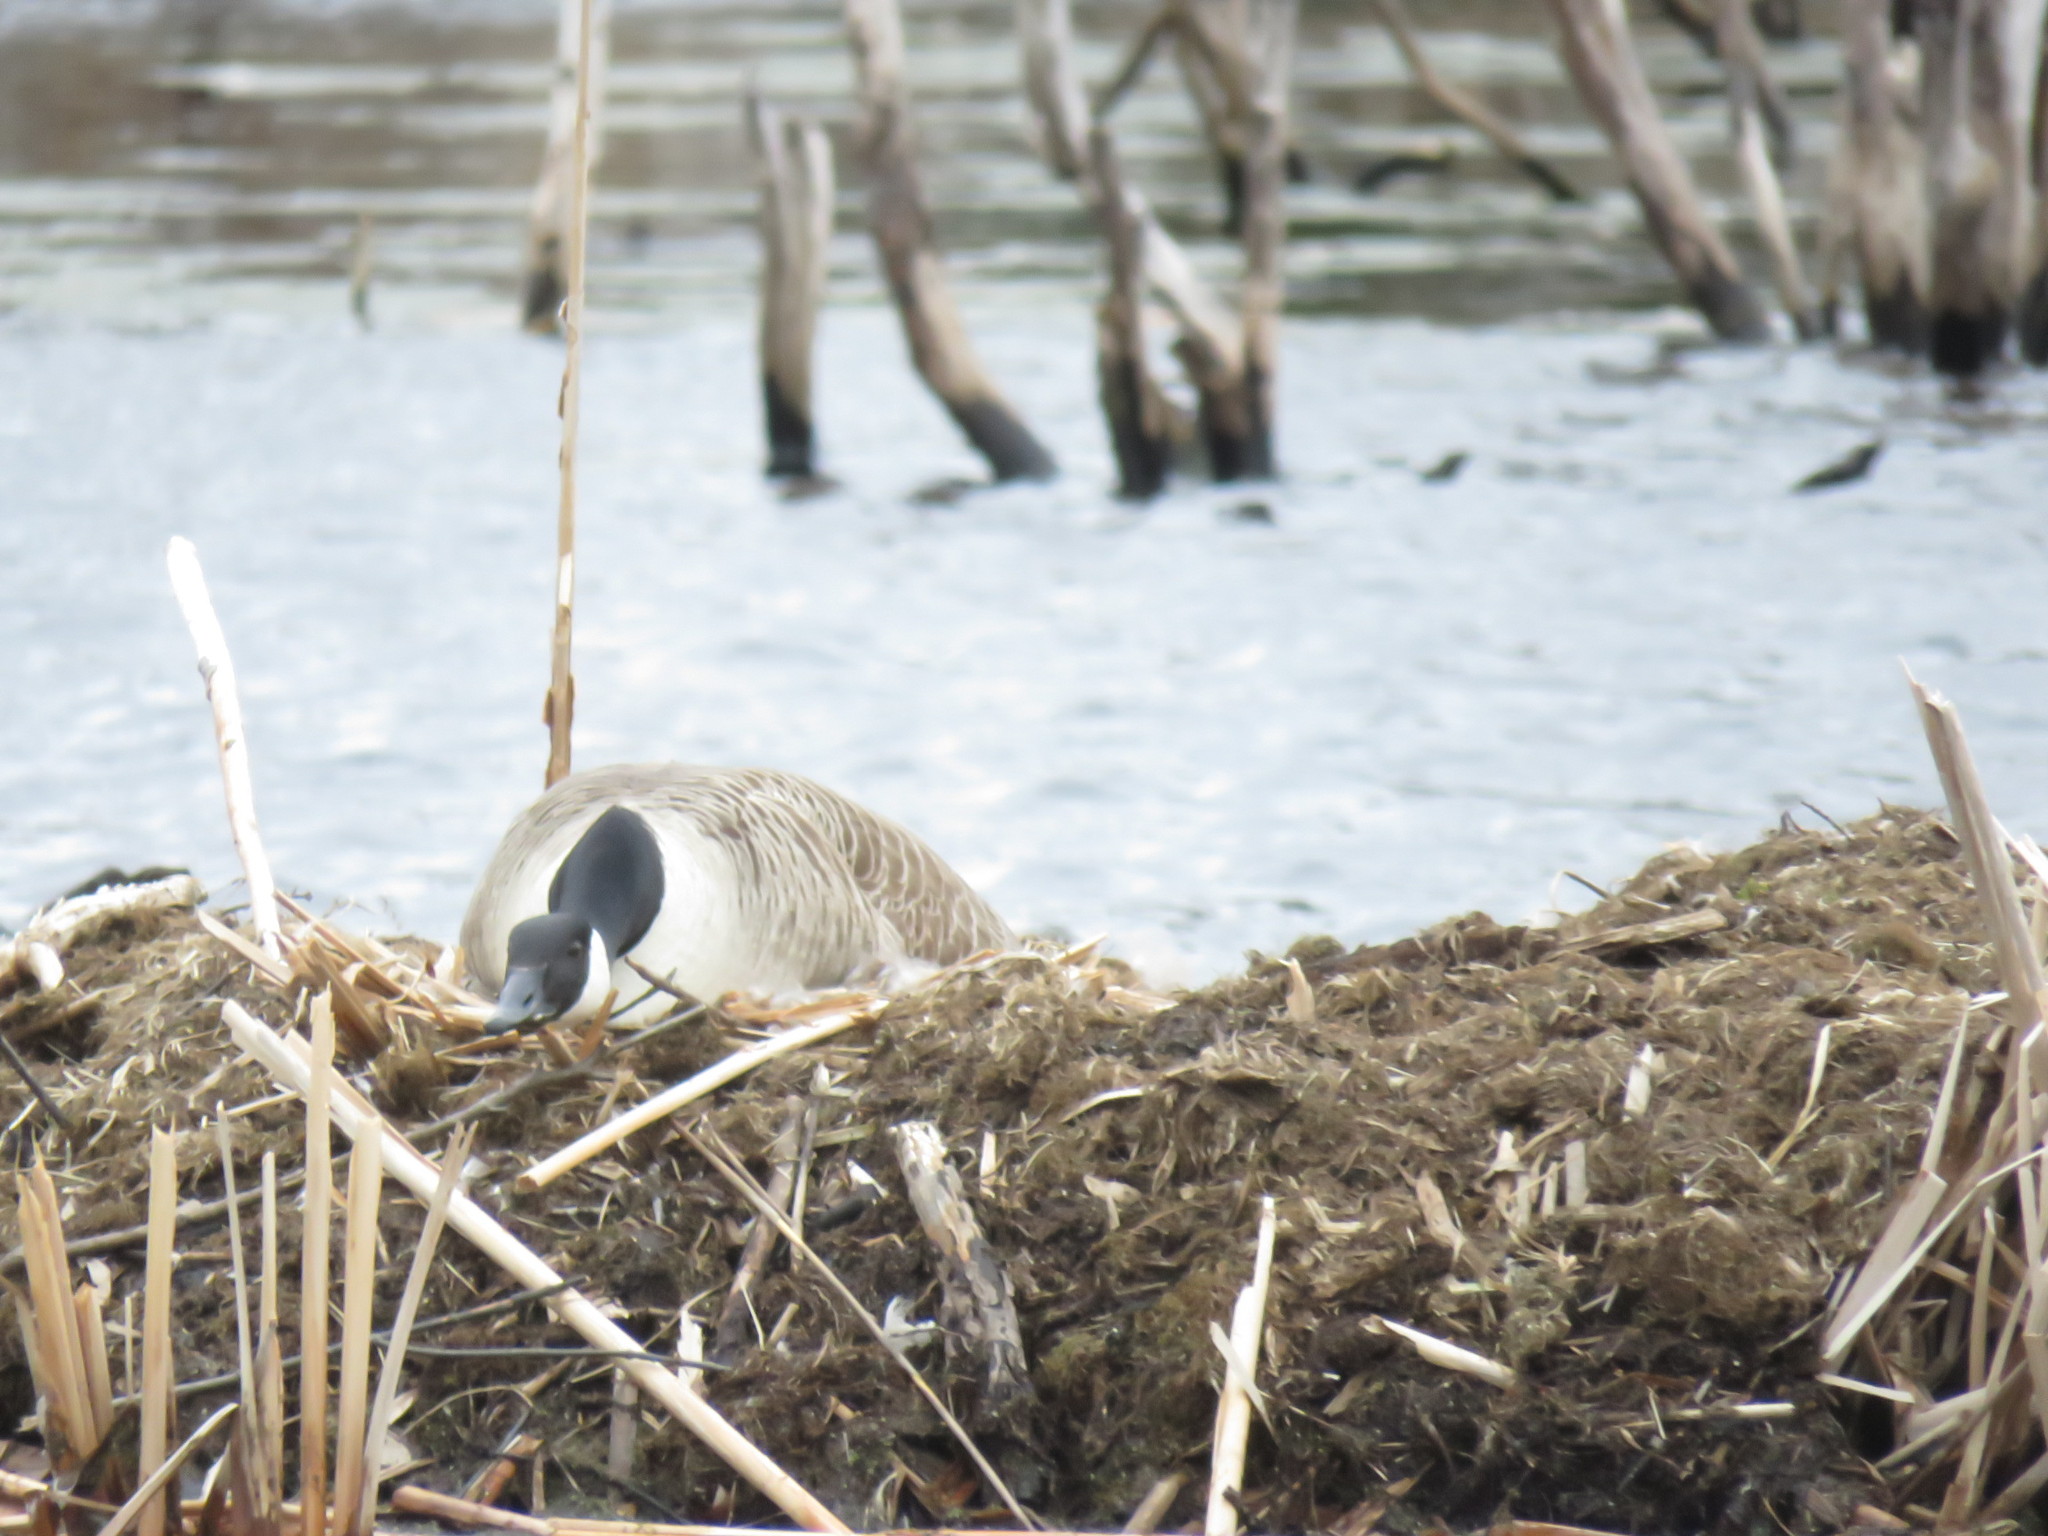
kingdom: Animalia
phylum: Chordata
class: Aves
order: Anseriformes
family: Anatidae
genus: Branta
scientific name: Branta canadensis
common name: Canada goose
